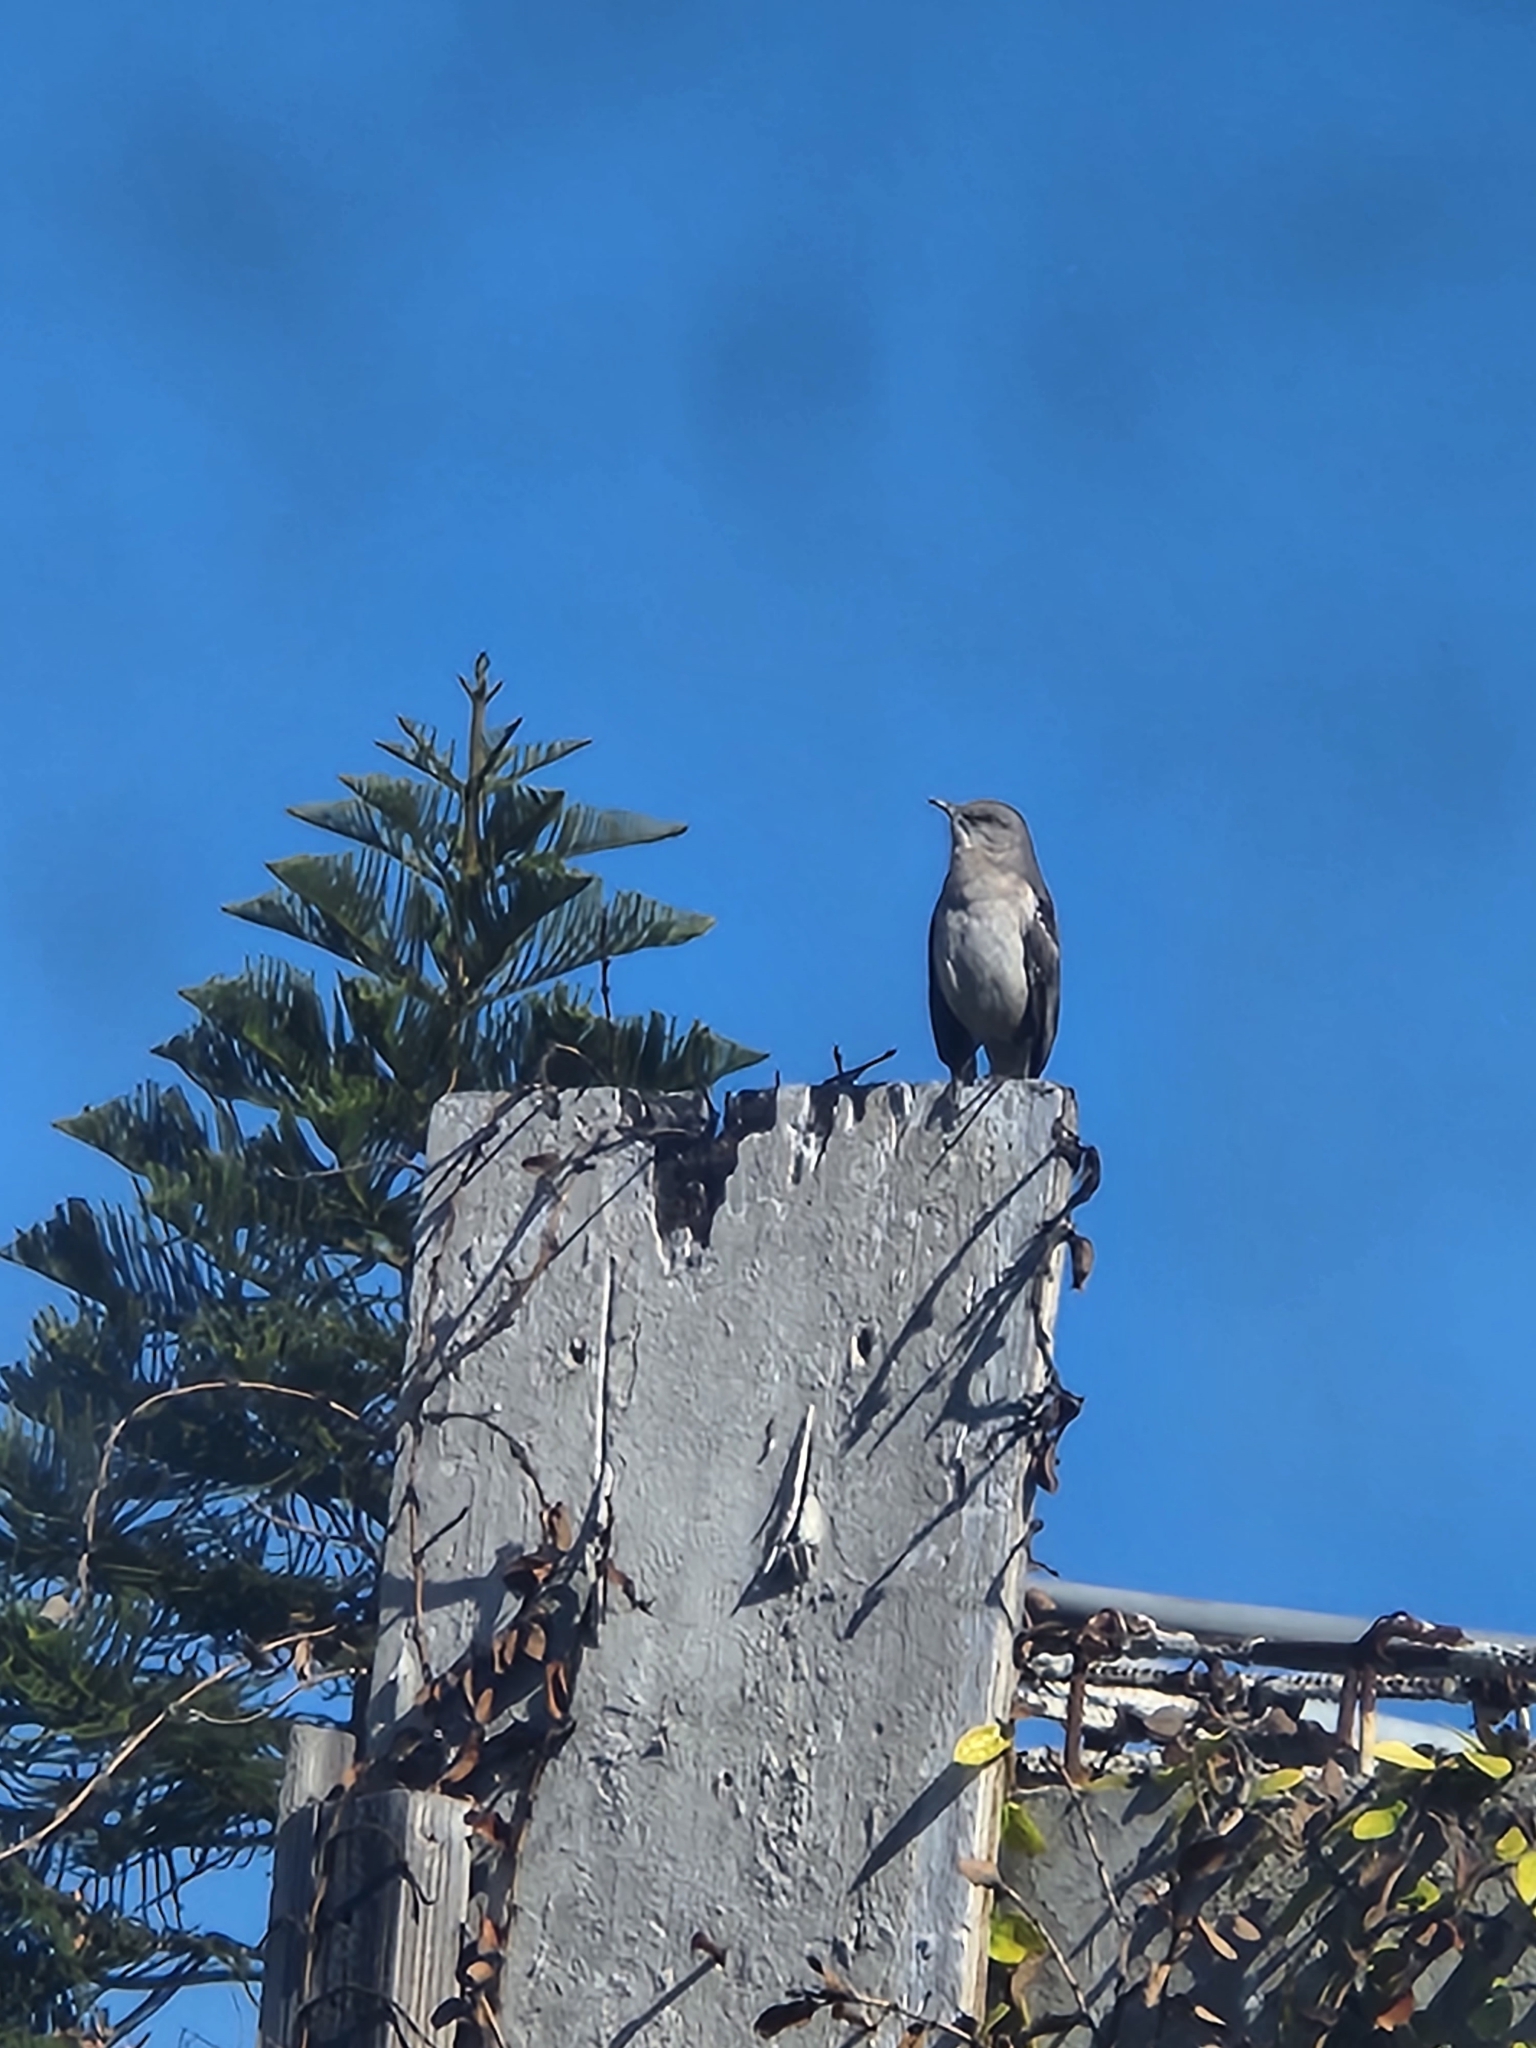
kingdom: Animalia
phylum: Chordata
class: Aves
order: Passeriformes
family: Mimidae
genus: Mimus
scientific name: Mimus polyglottos
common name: Northern mockingbird
